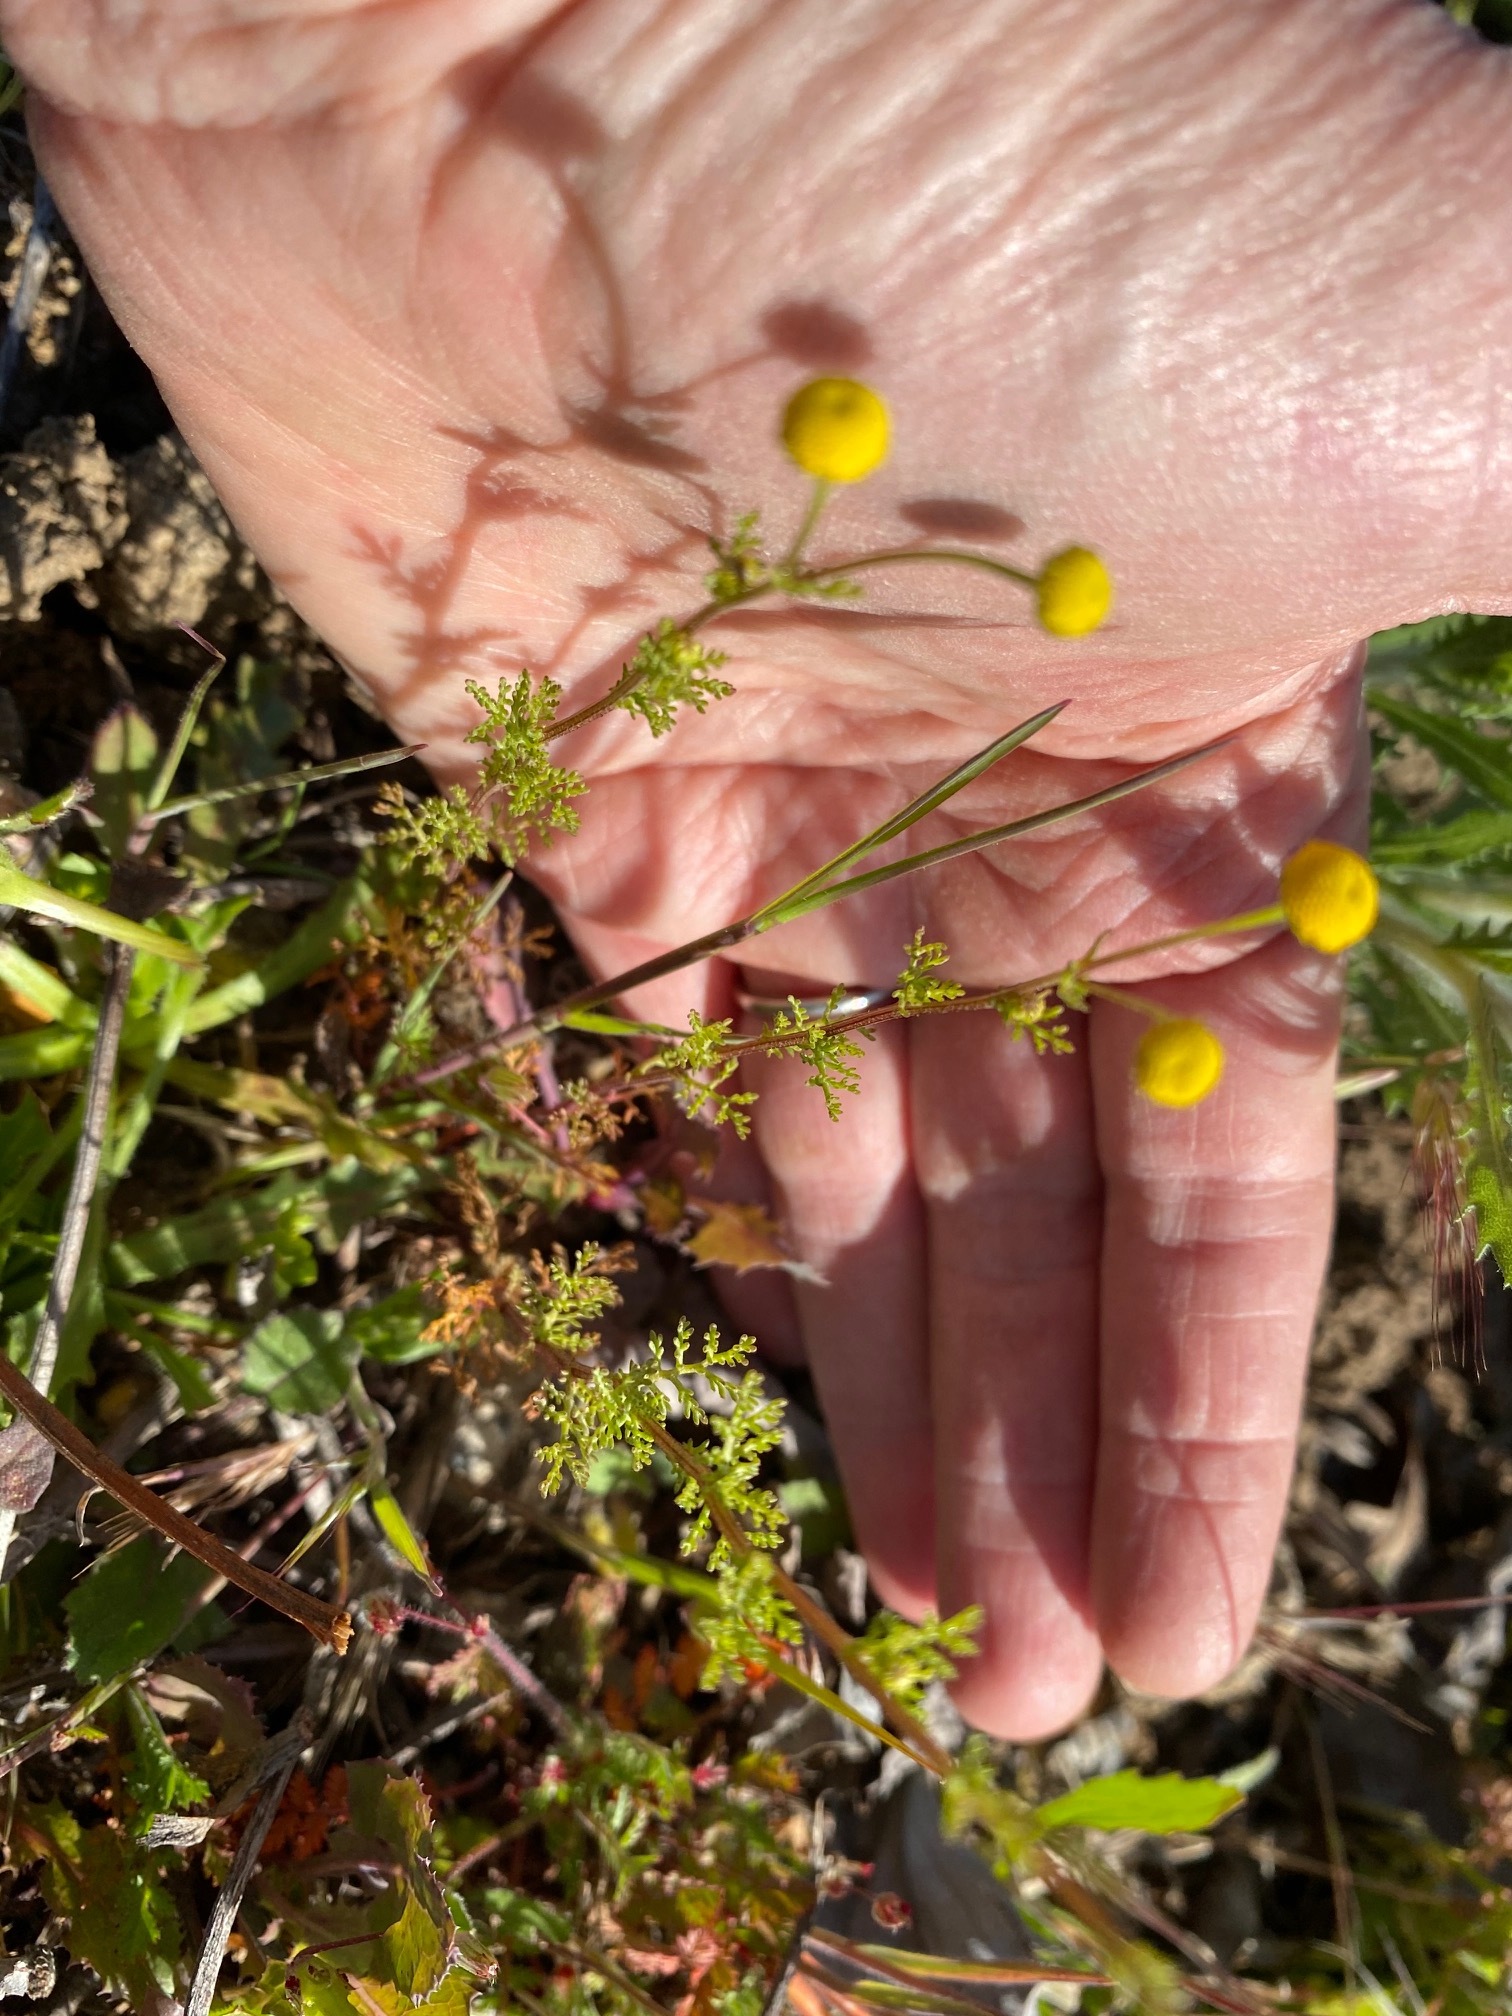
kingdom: Plantae
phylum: Tracheophyta
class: Magnoliopsida
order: Asterales
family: Asteraceae
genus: Oncosiphon
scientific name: Oncosiphon pilulifer
